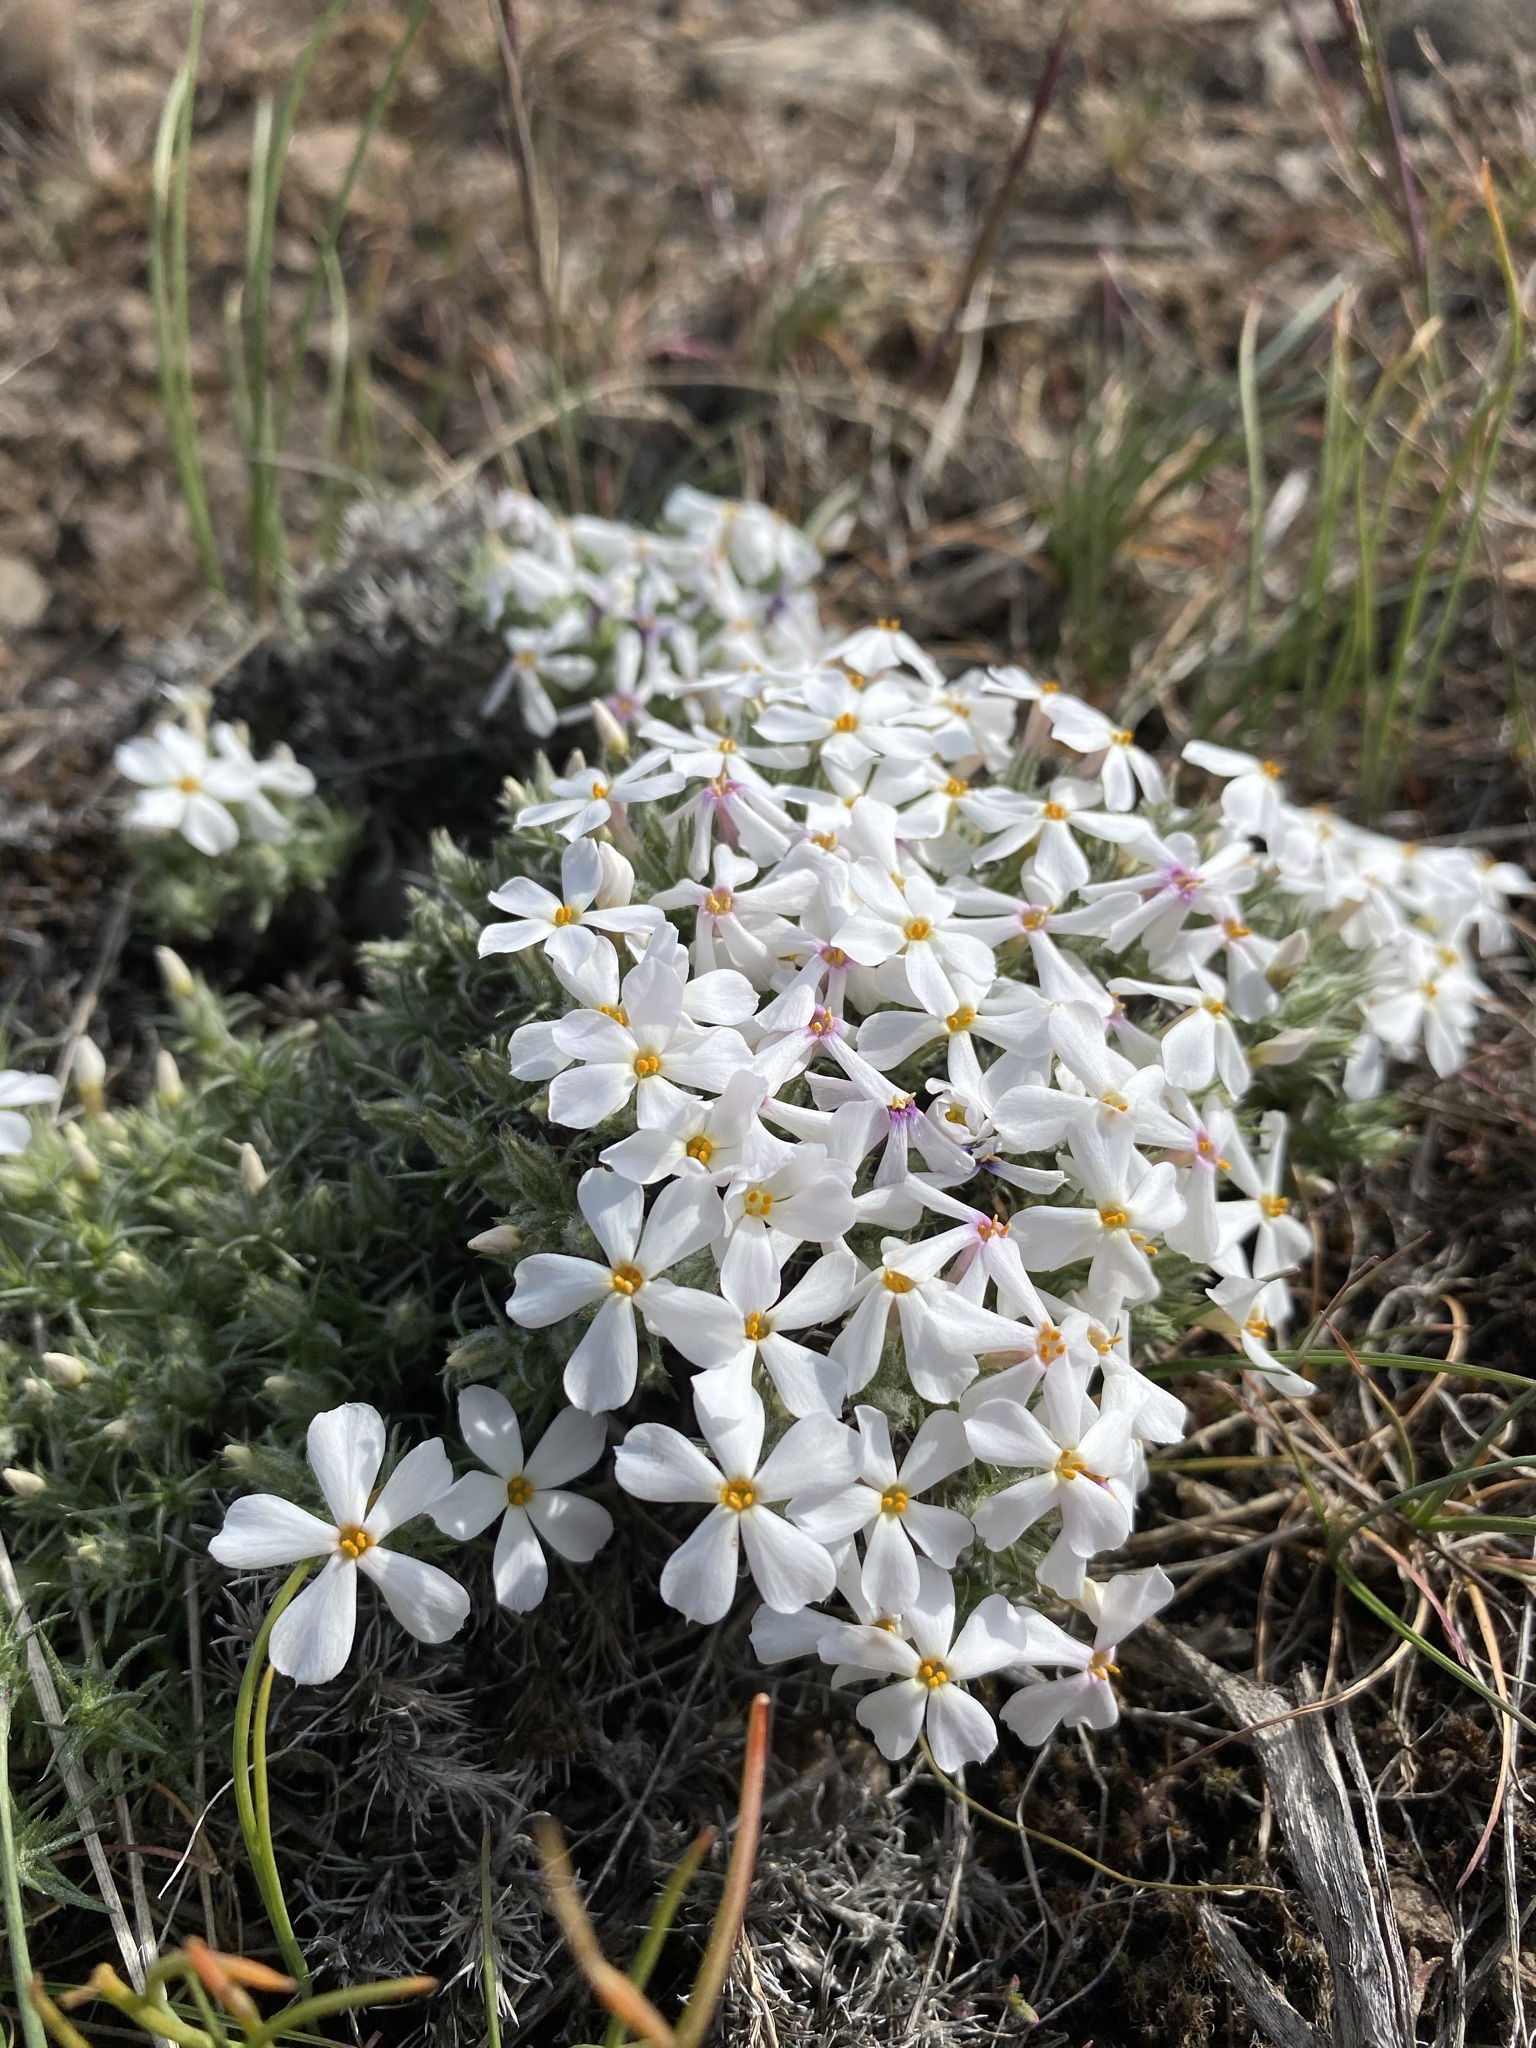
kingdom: Plantae
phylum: Tracheophyta
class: Magnoliopsida
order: Ericales
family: Polemoniaceae
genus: Phlox
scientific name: Phlox hoodii
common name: Moss phlox
